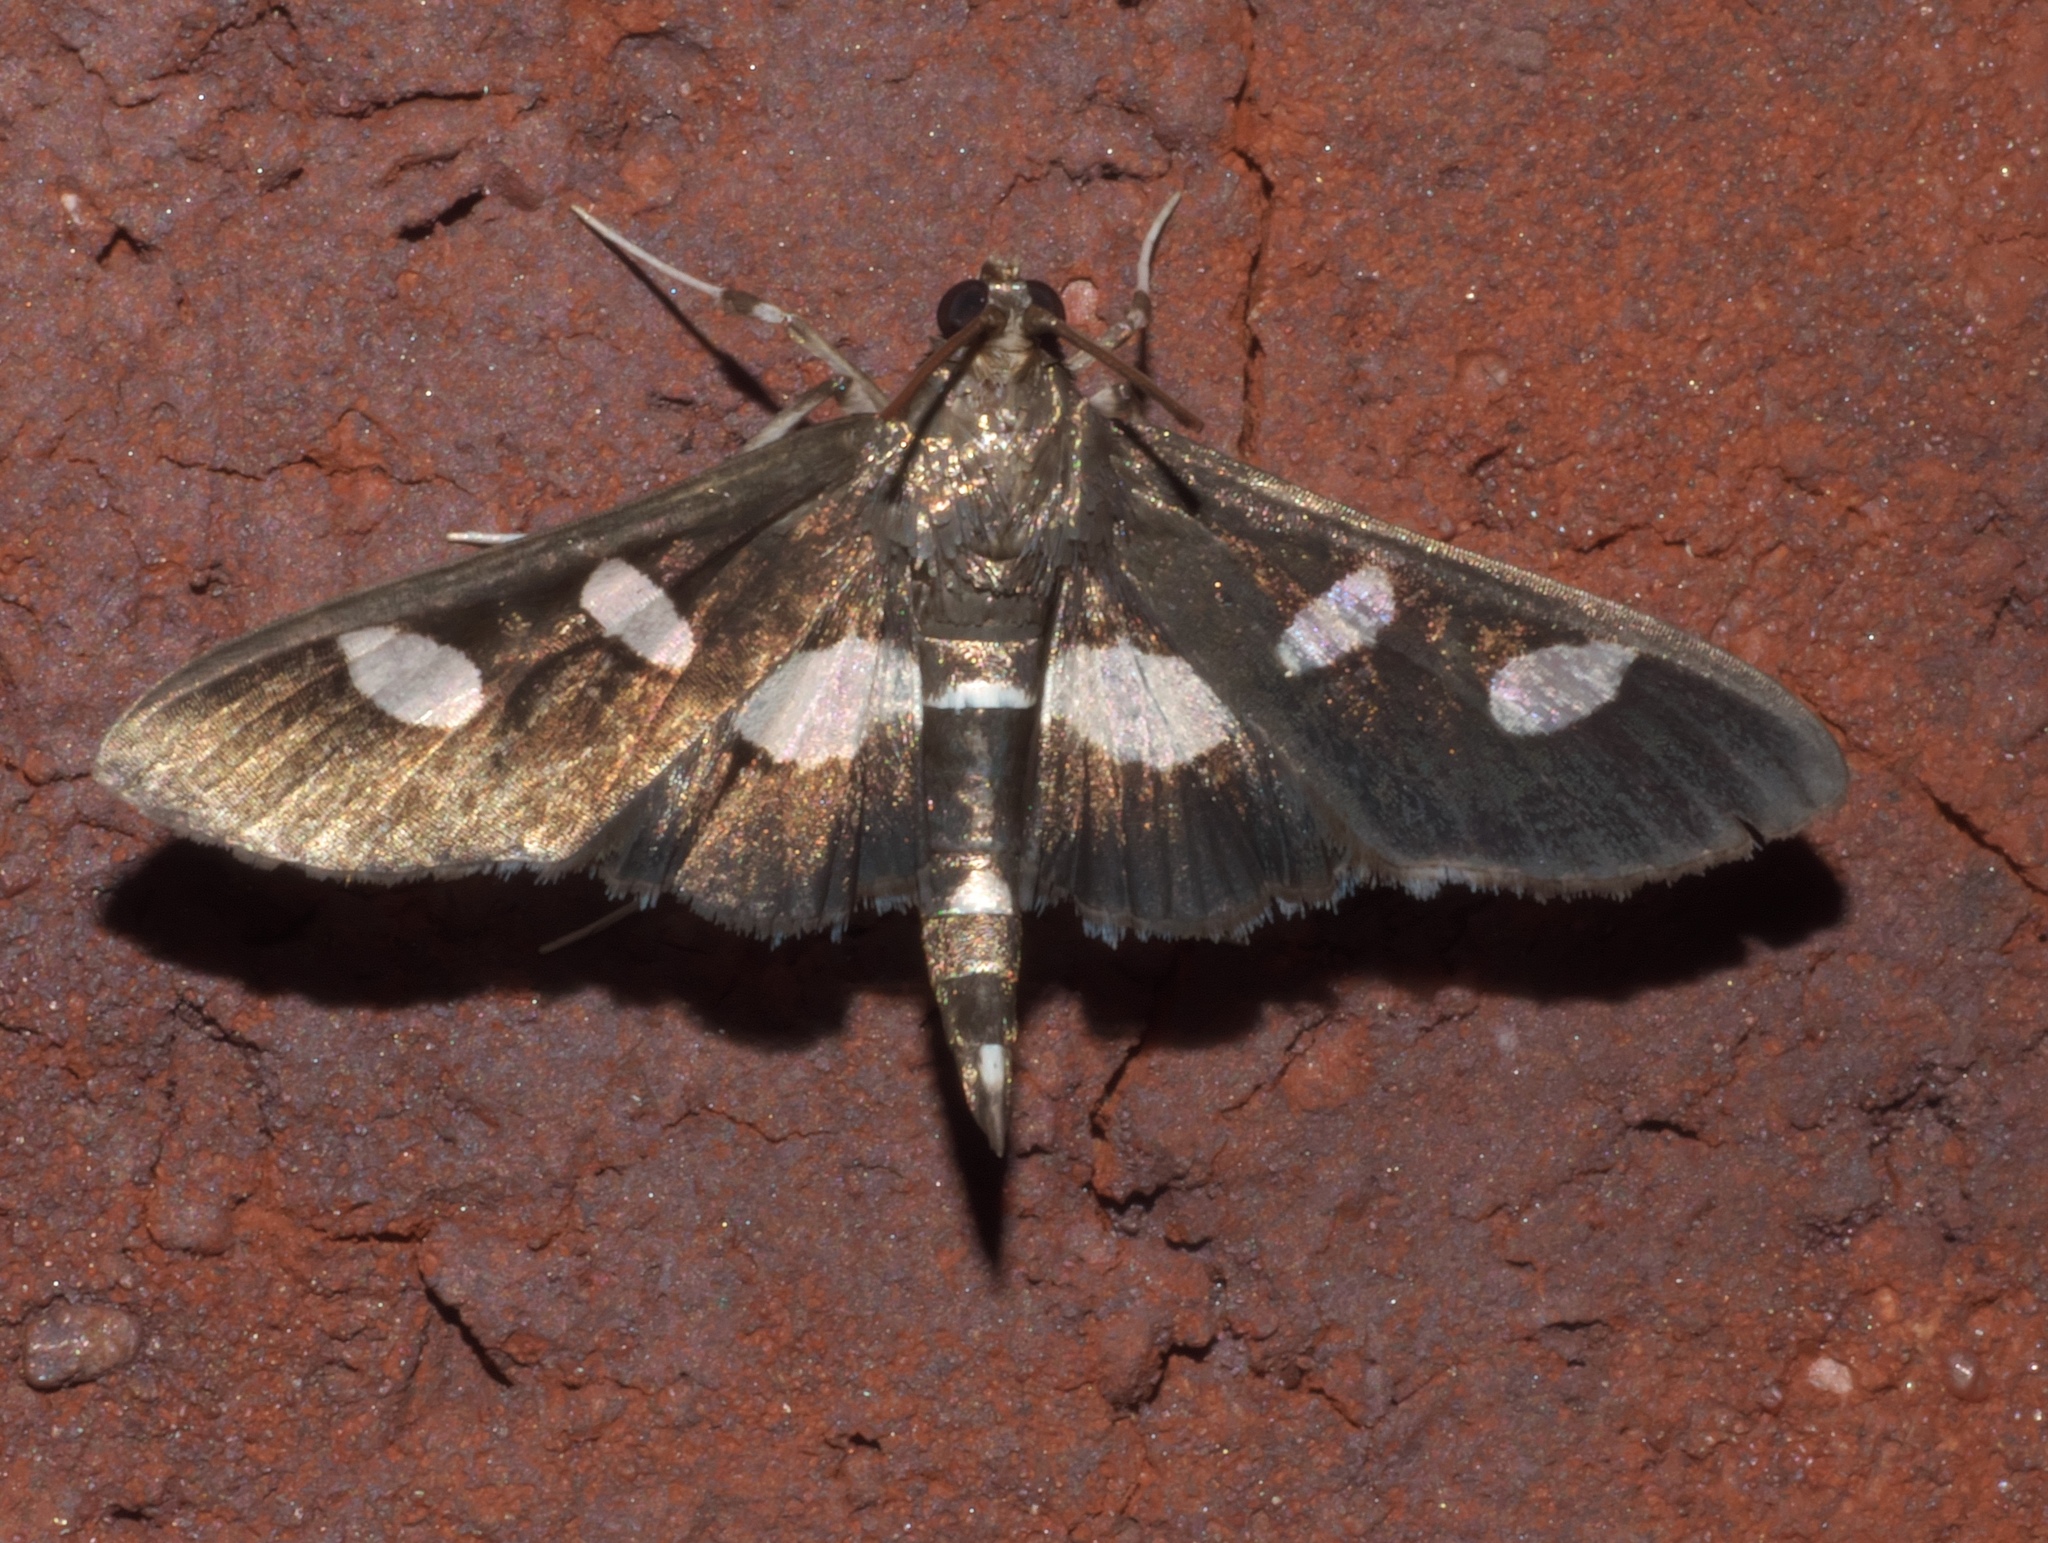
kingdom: Animalia
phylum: Arthropoda
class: Insecta
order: Lepidoptera
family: Crambidae
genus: Desmia
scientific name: Desmia
